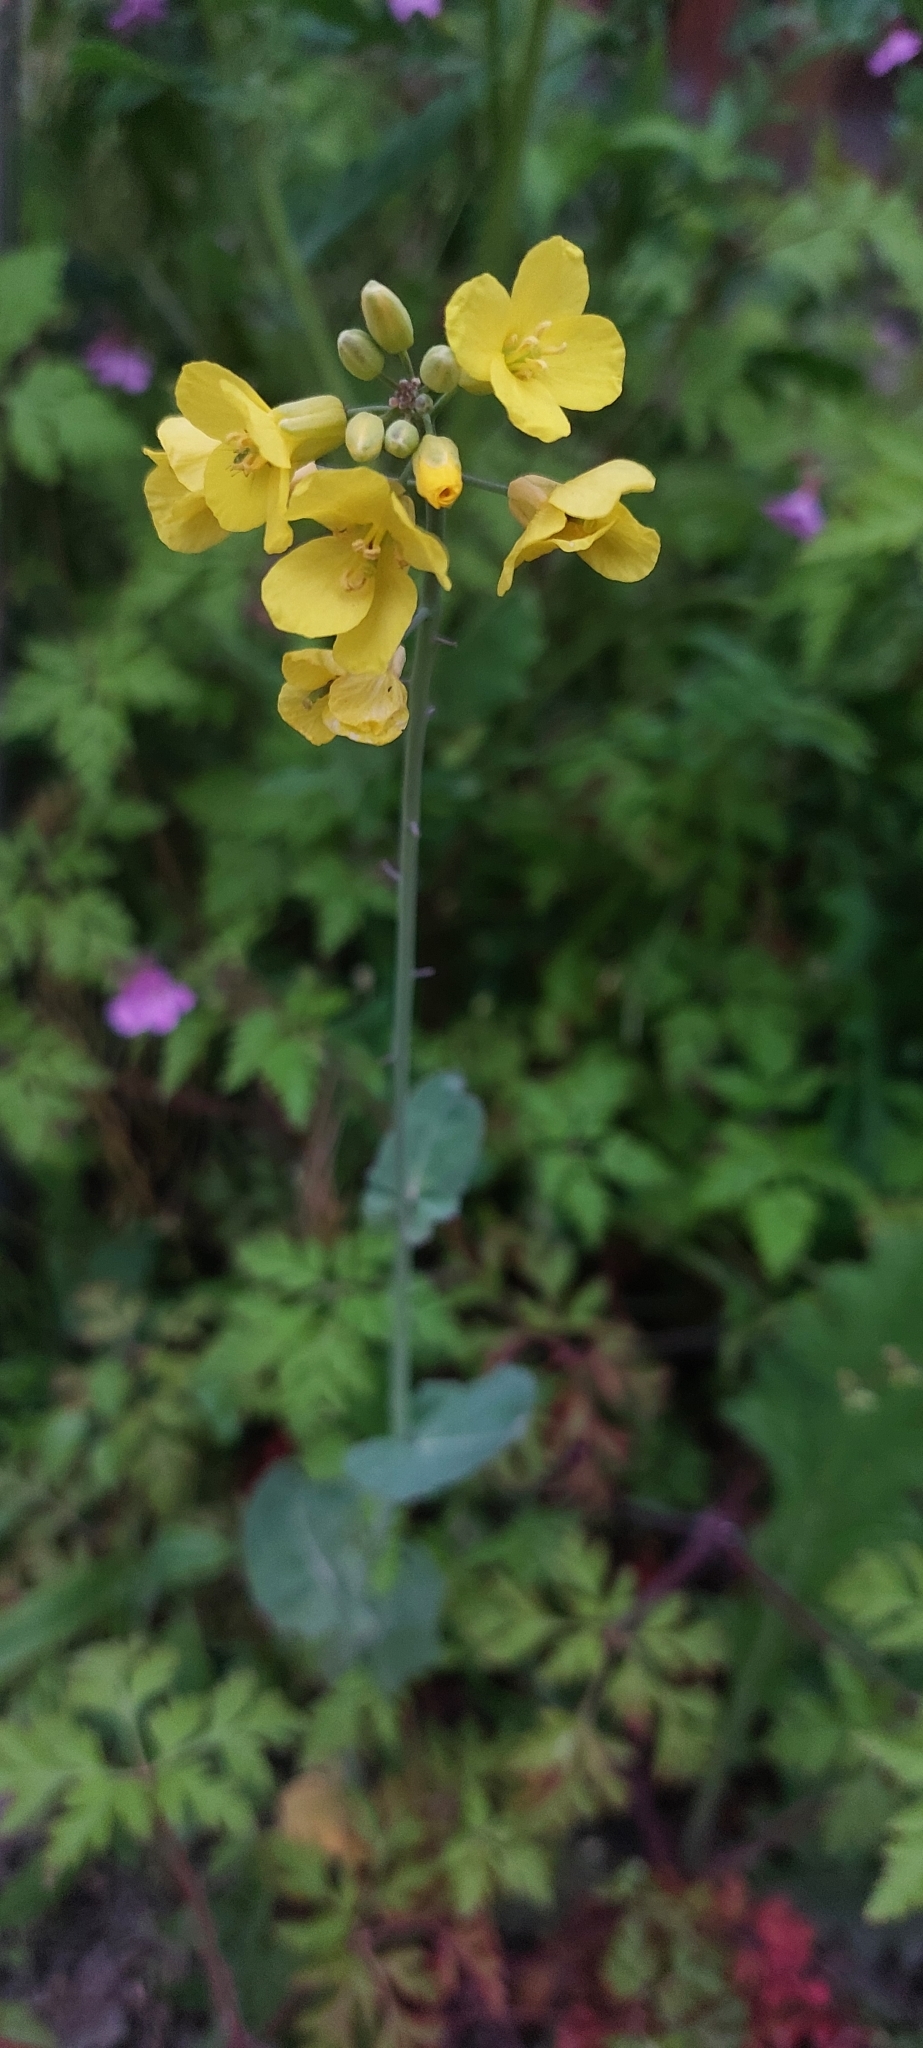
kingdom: Plantae
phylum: Tracheophyta
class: Magnoliopsida
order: Brassicales
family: Brassicaceae
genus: Brassica
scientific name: Brassica napus
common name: Rape
